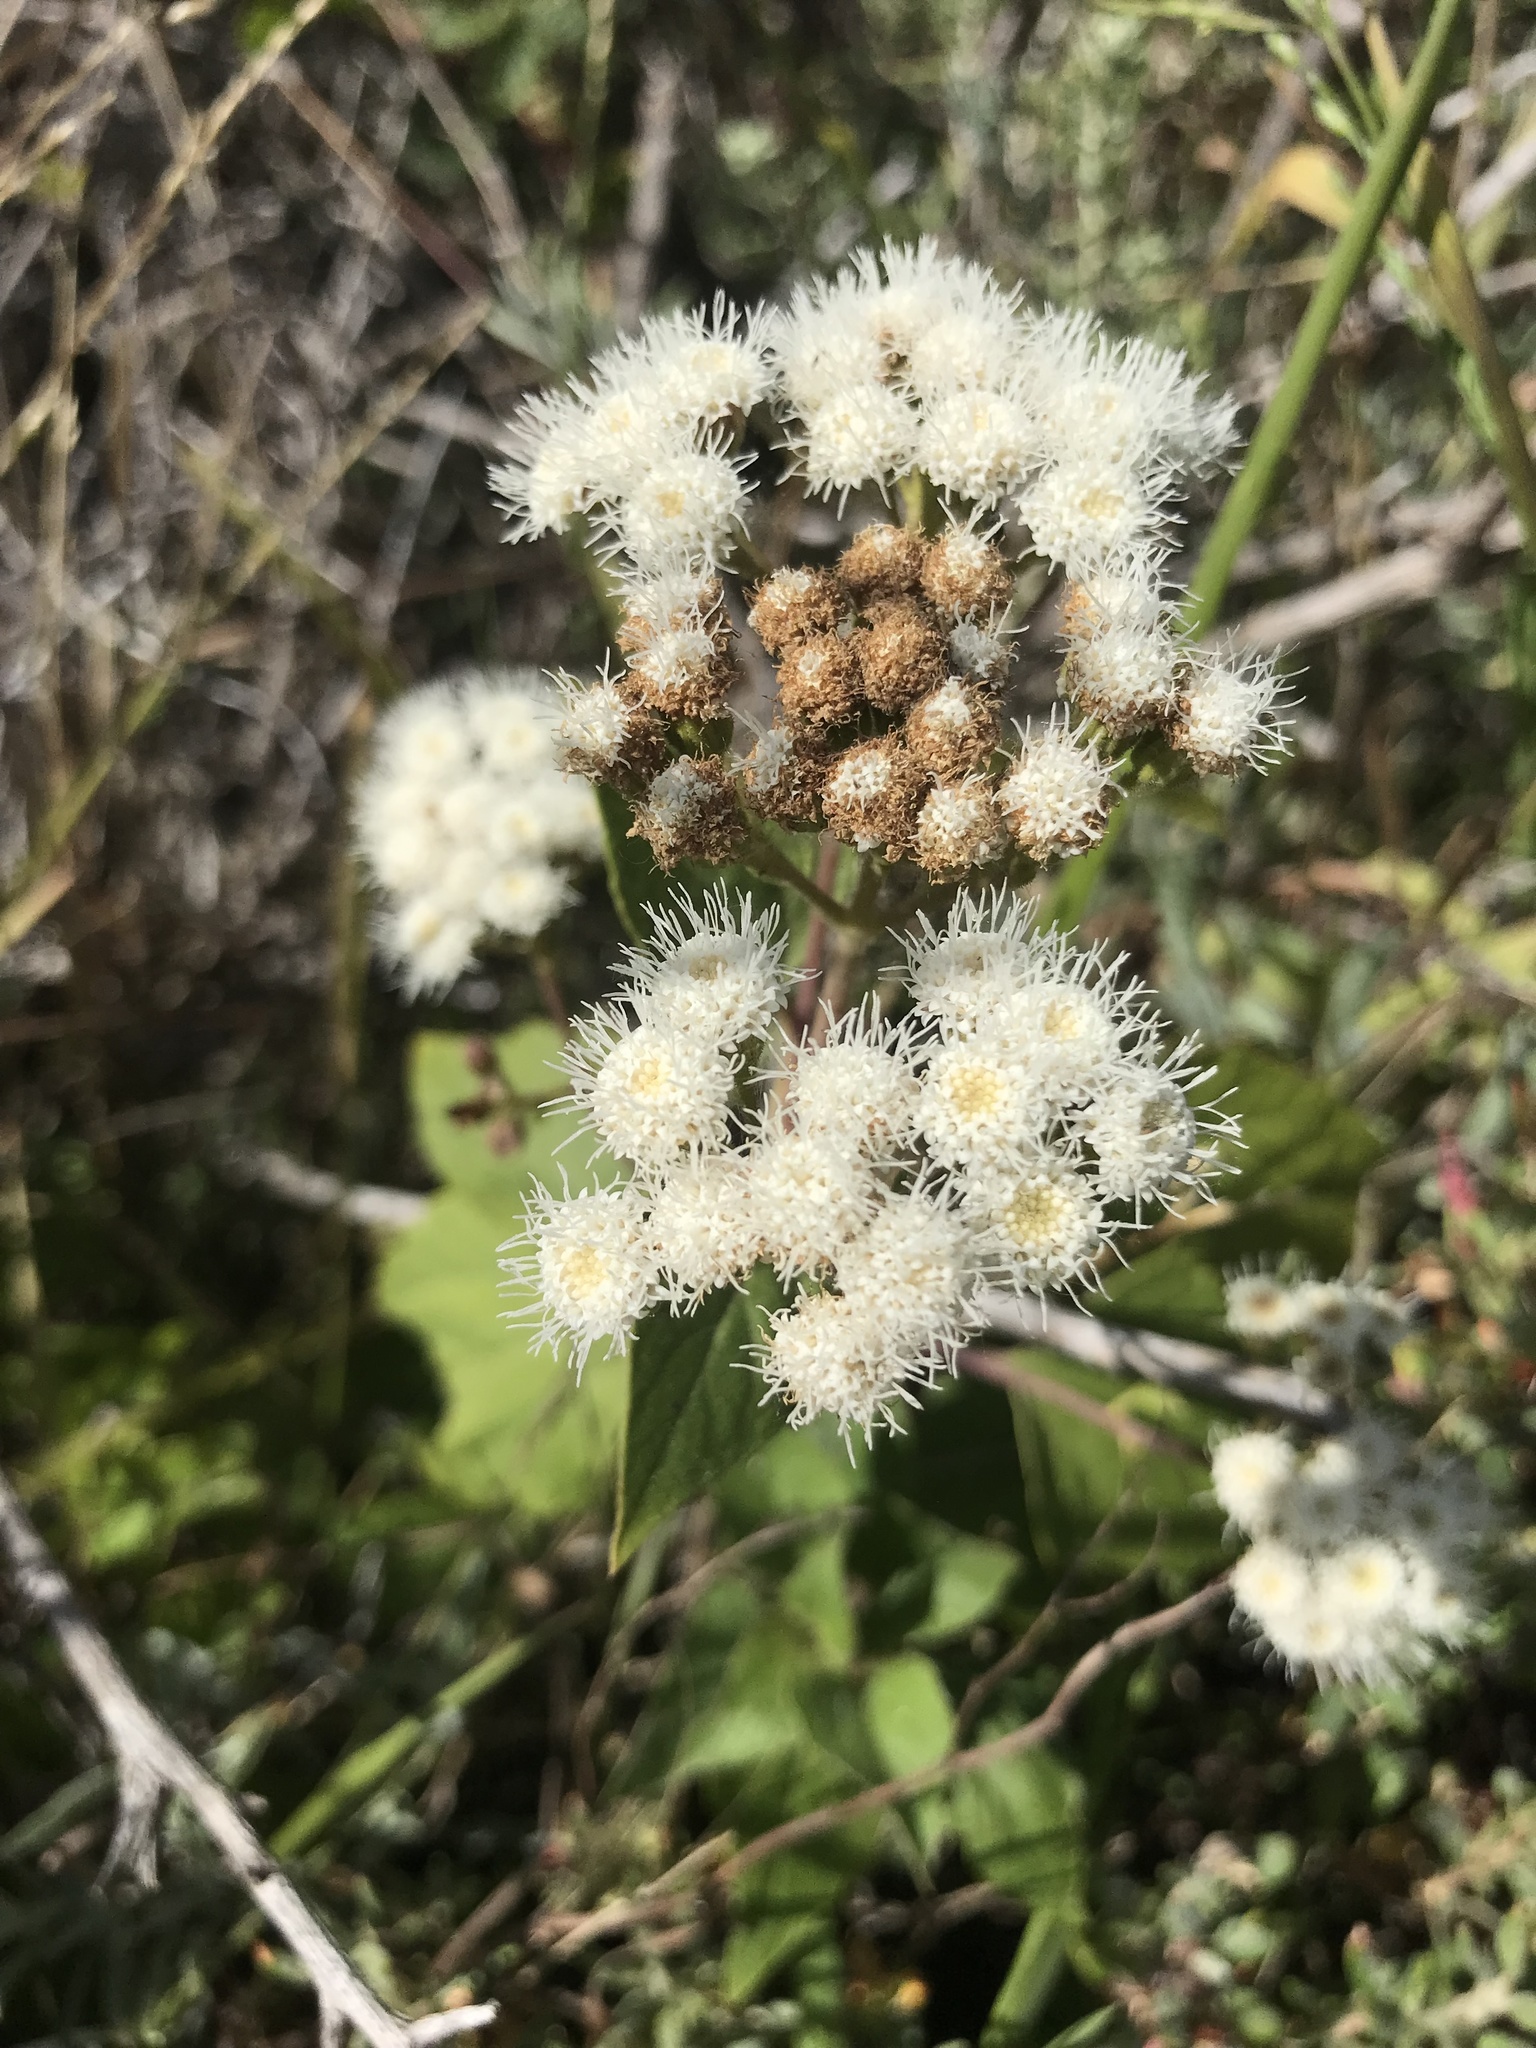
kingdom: Plantae
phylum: Tracheophyta
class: Magnoliopsida
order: Asterales
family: Asteraceae
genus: Ageratina
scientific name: Ageratina adenophora
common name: Sticky snakeroot
